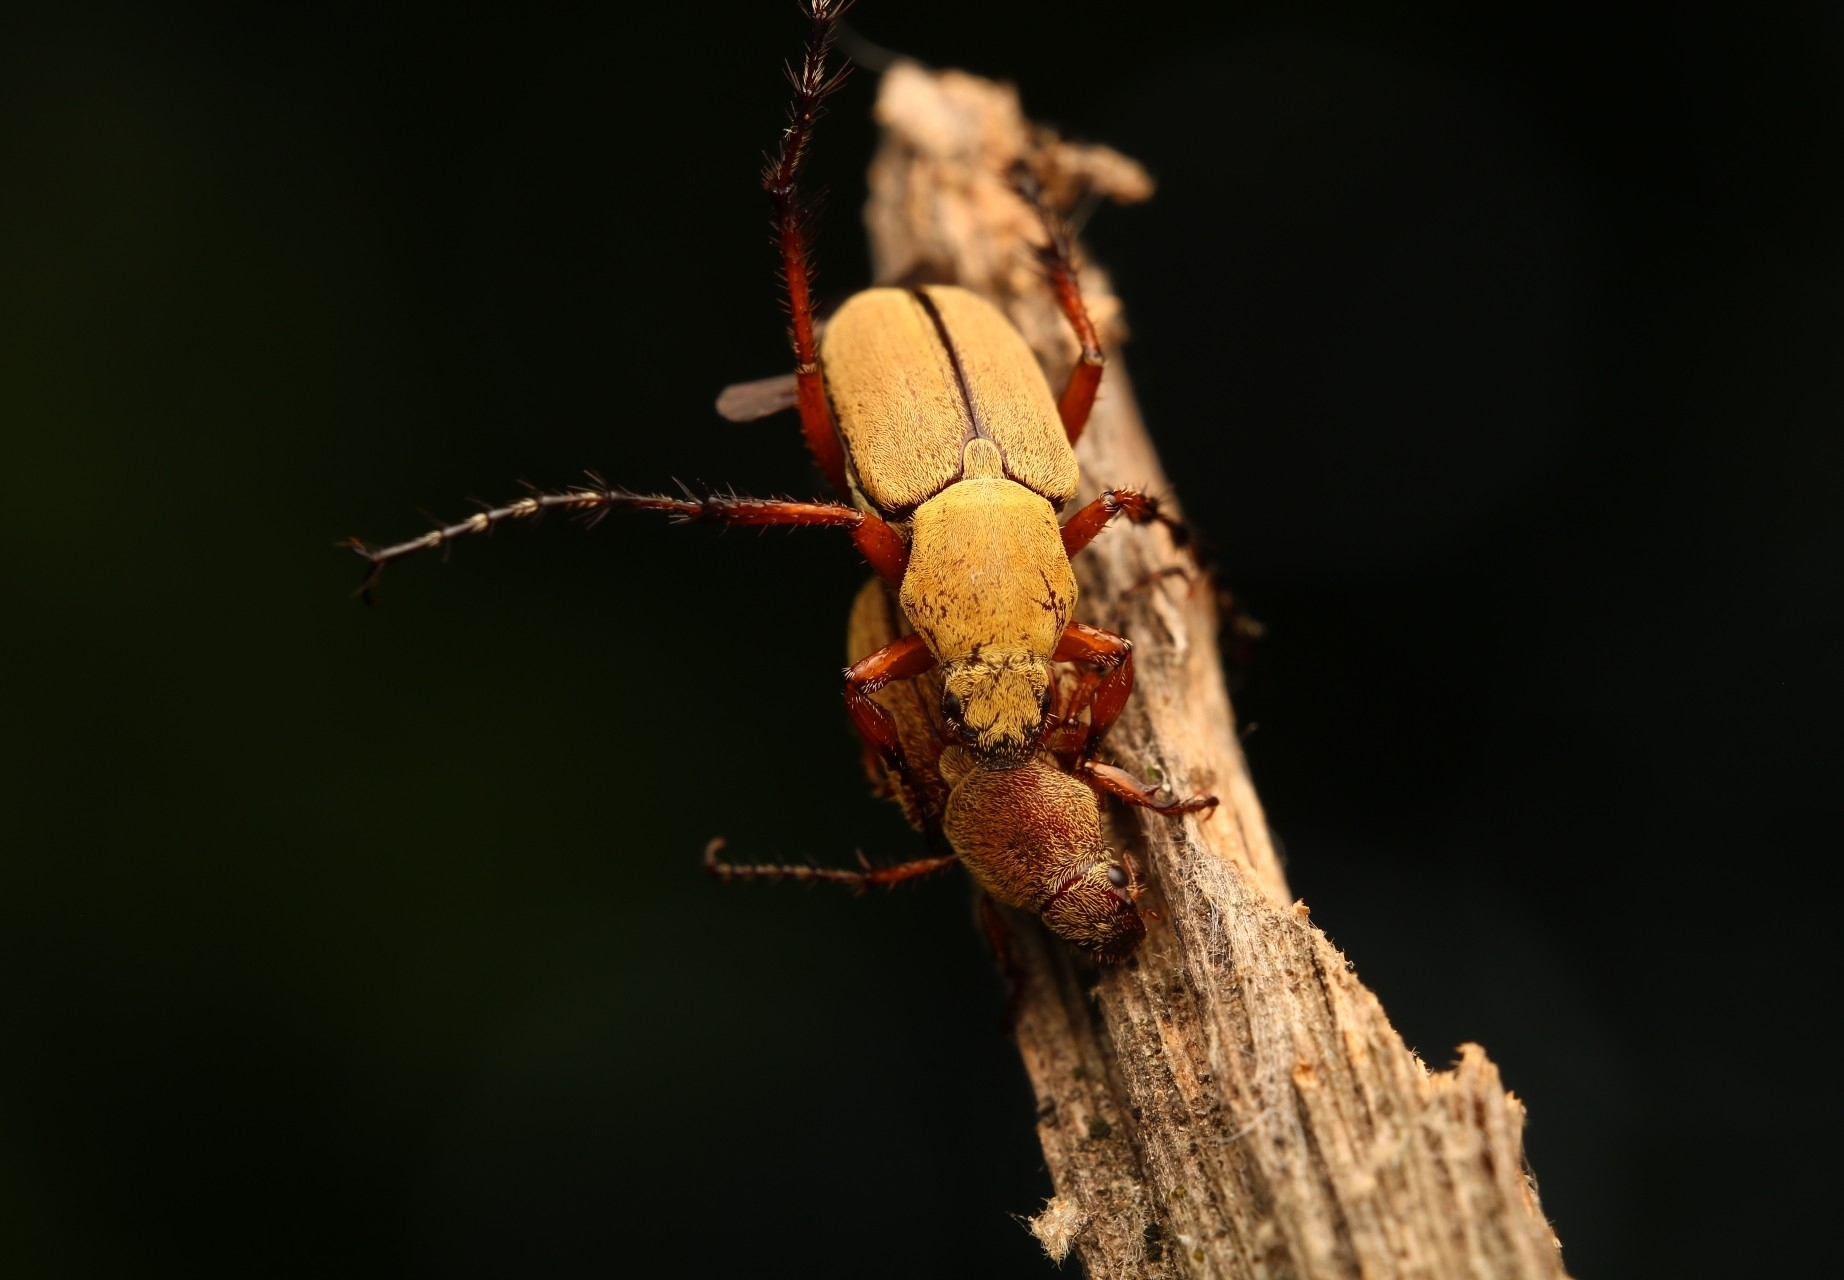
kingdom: Animalia
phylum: Arthropoda
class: Insecta
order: Coleoptera
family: Scarabaeidae
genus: Macrodactylus
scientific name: Macrodactylus subspinosus
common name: American rose chafer
